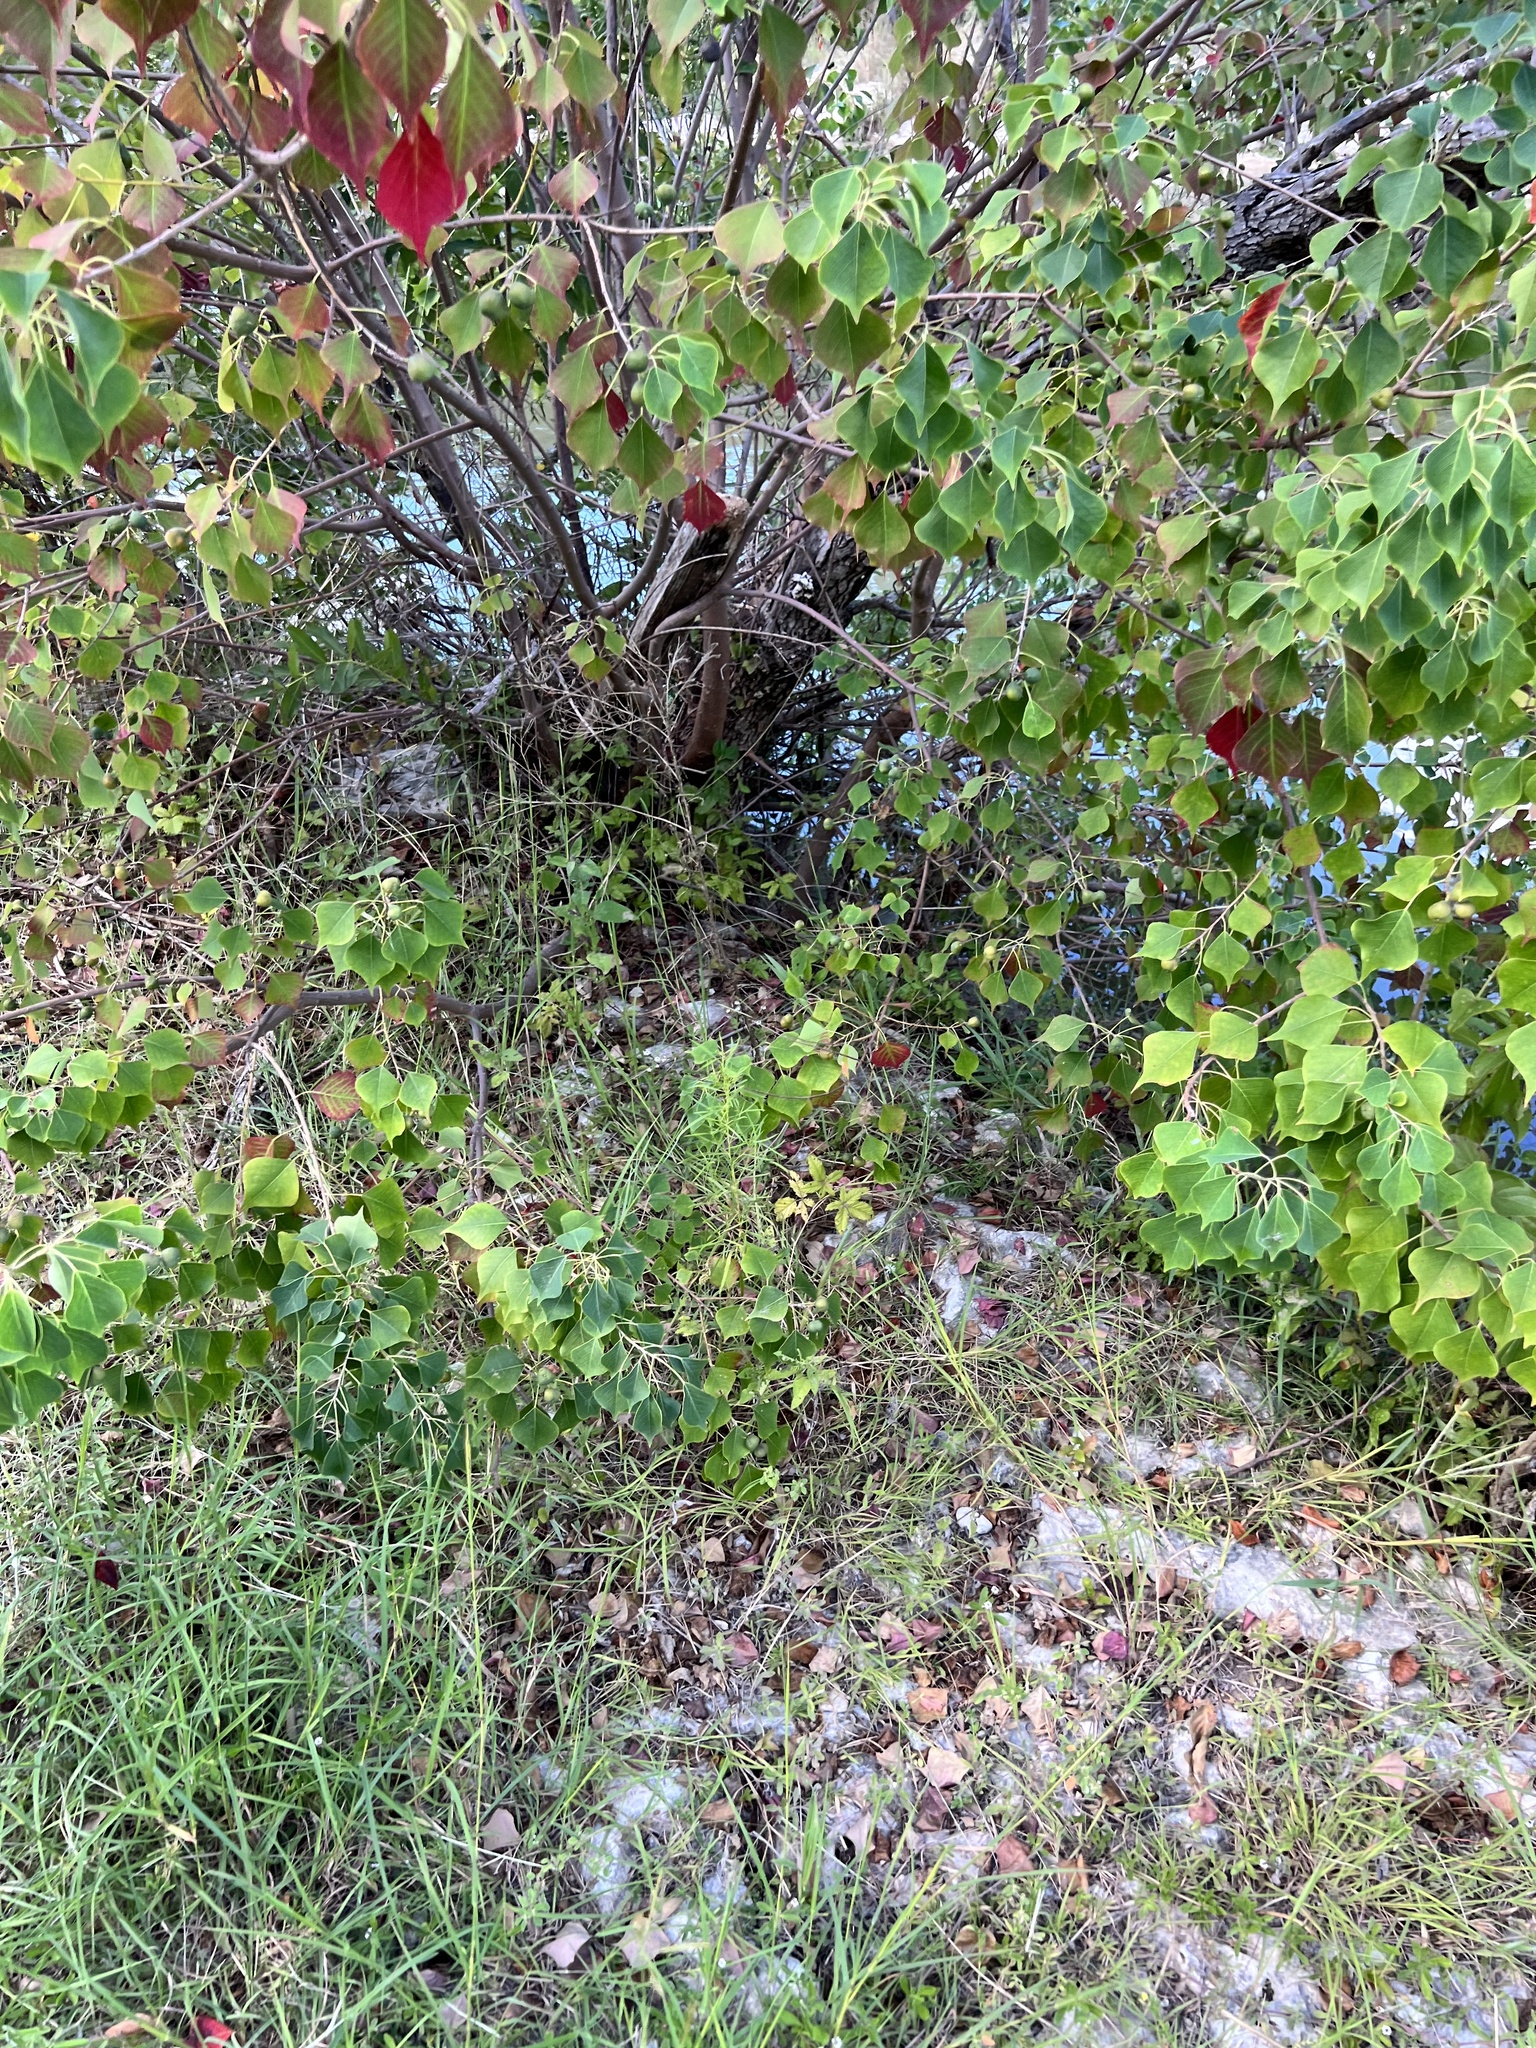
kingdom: Plantae
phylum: Tracheophyta
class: Magnoliopsida
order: Malpighiales
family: Euphorbiaceae
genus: Triadica
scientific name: Triadica sebifera
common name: Chinese tallow
